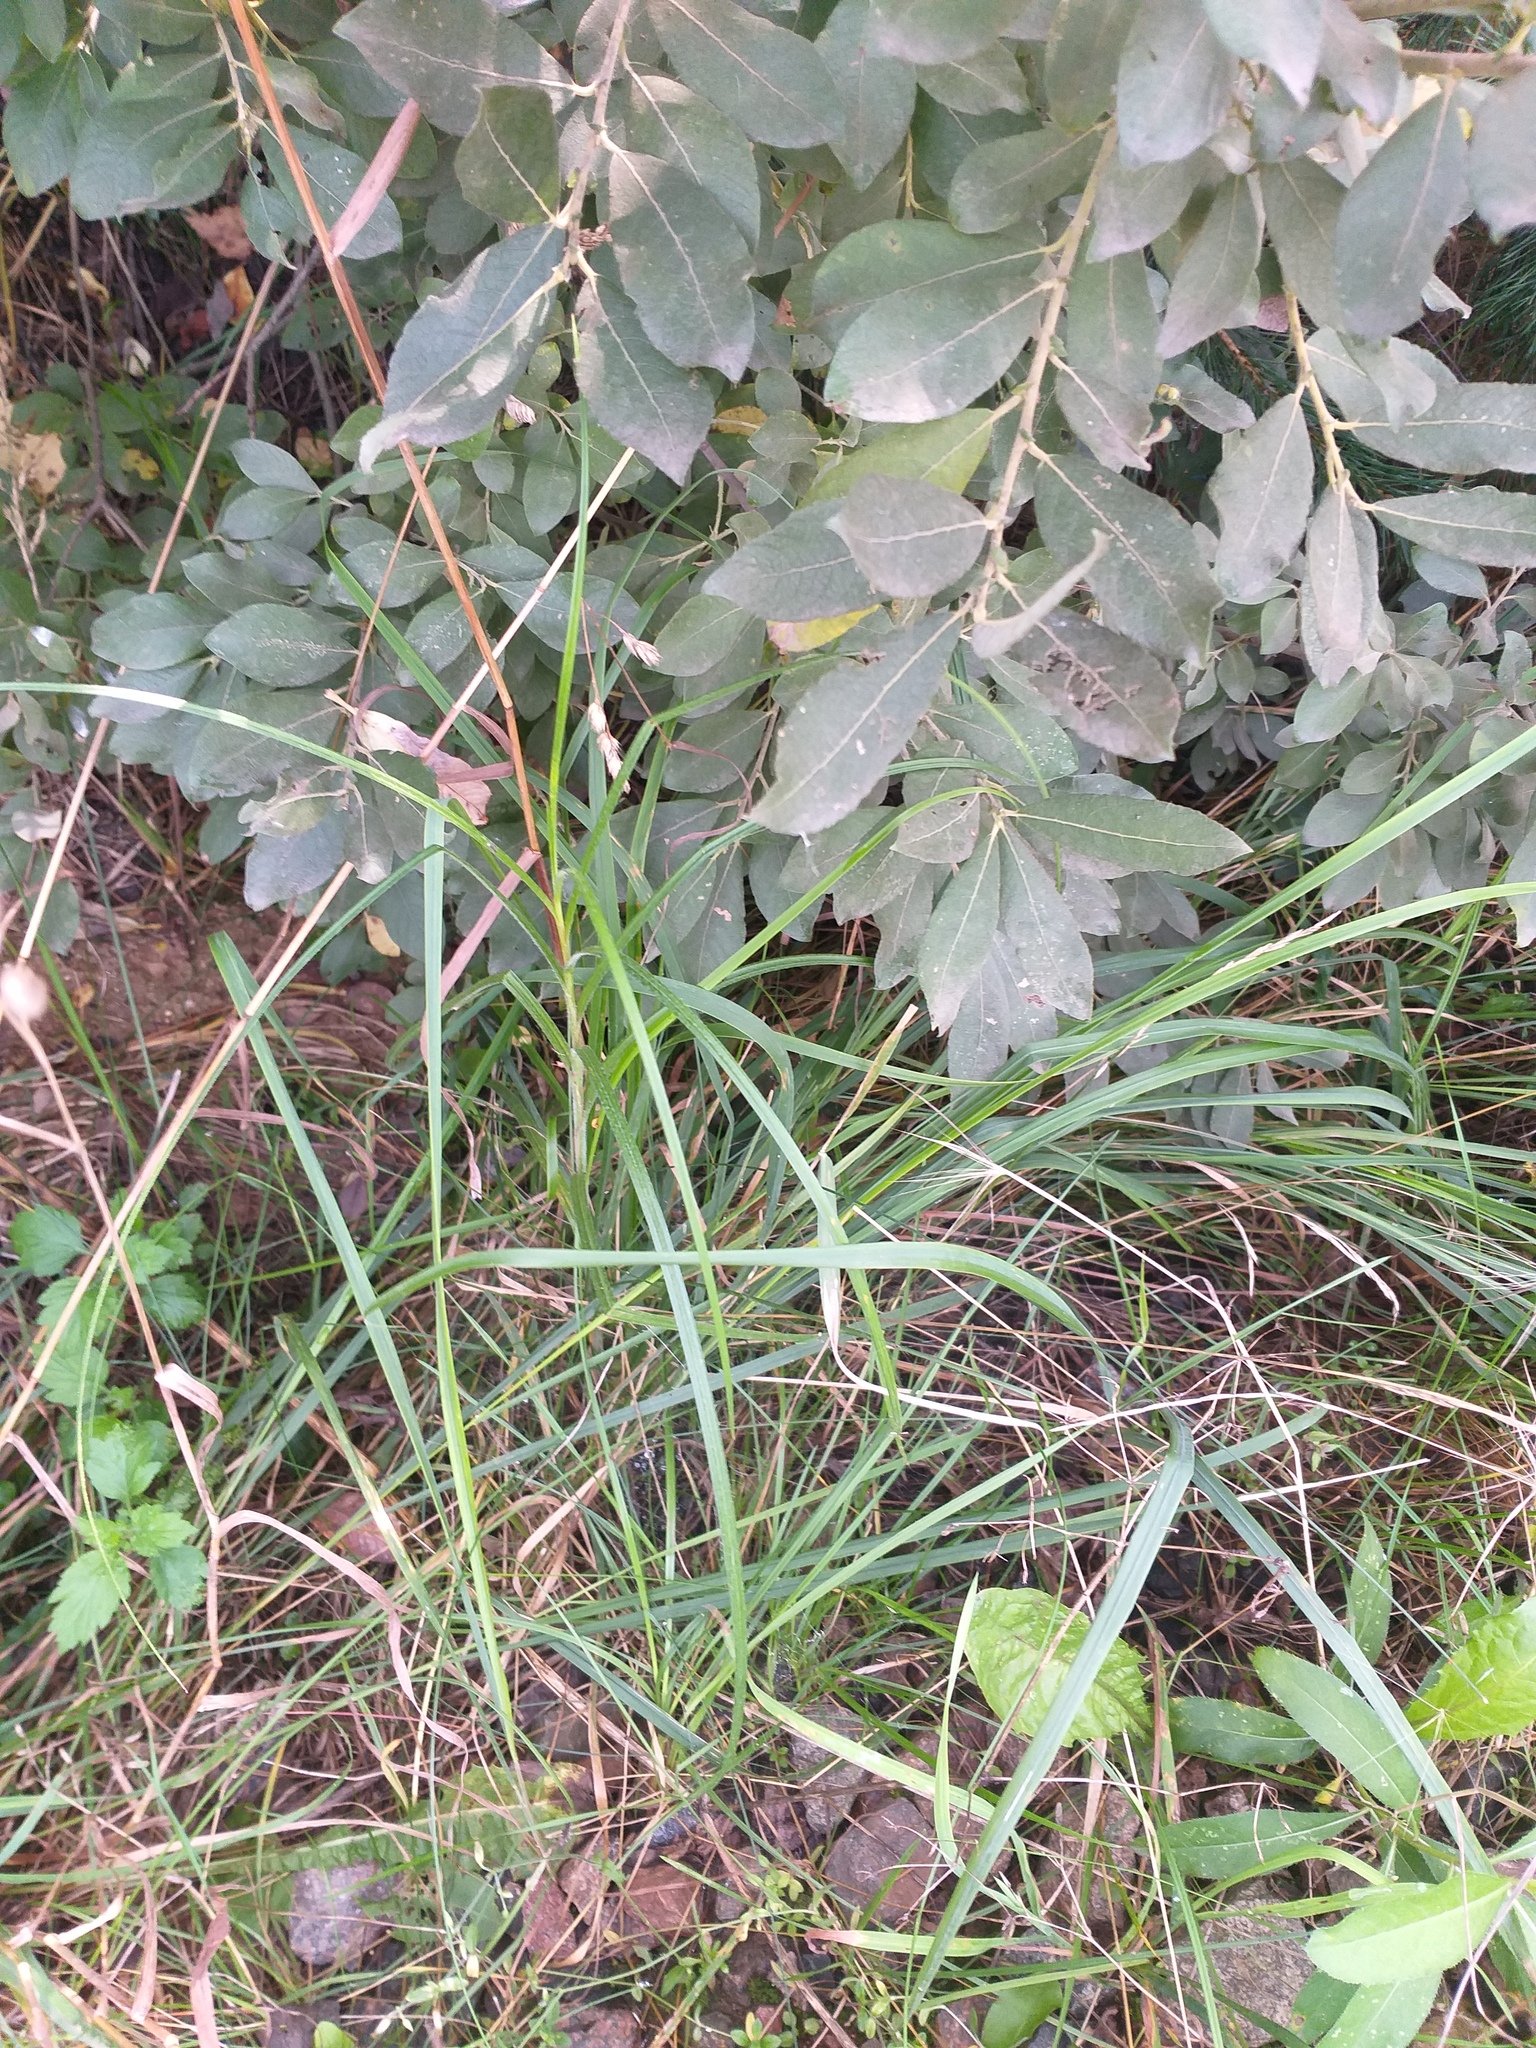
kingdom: Plantae
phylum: Tracheophyta
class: Liliopsida
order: Poales
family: Cyperaceae
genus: Carex
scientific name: Carex hirta
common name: Hairy sedge
